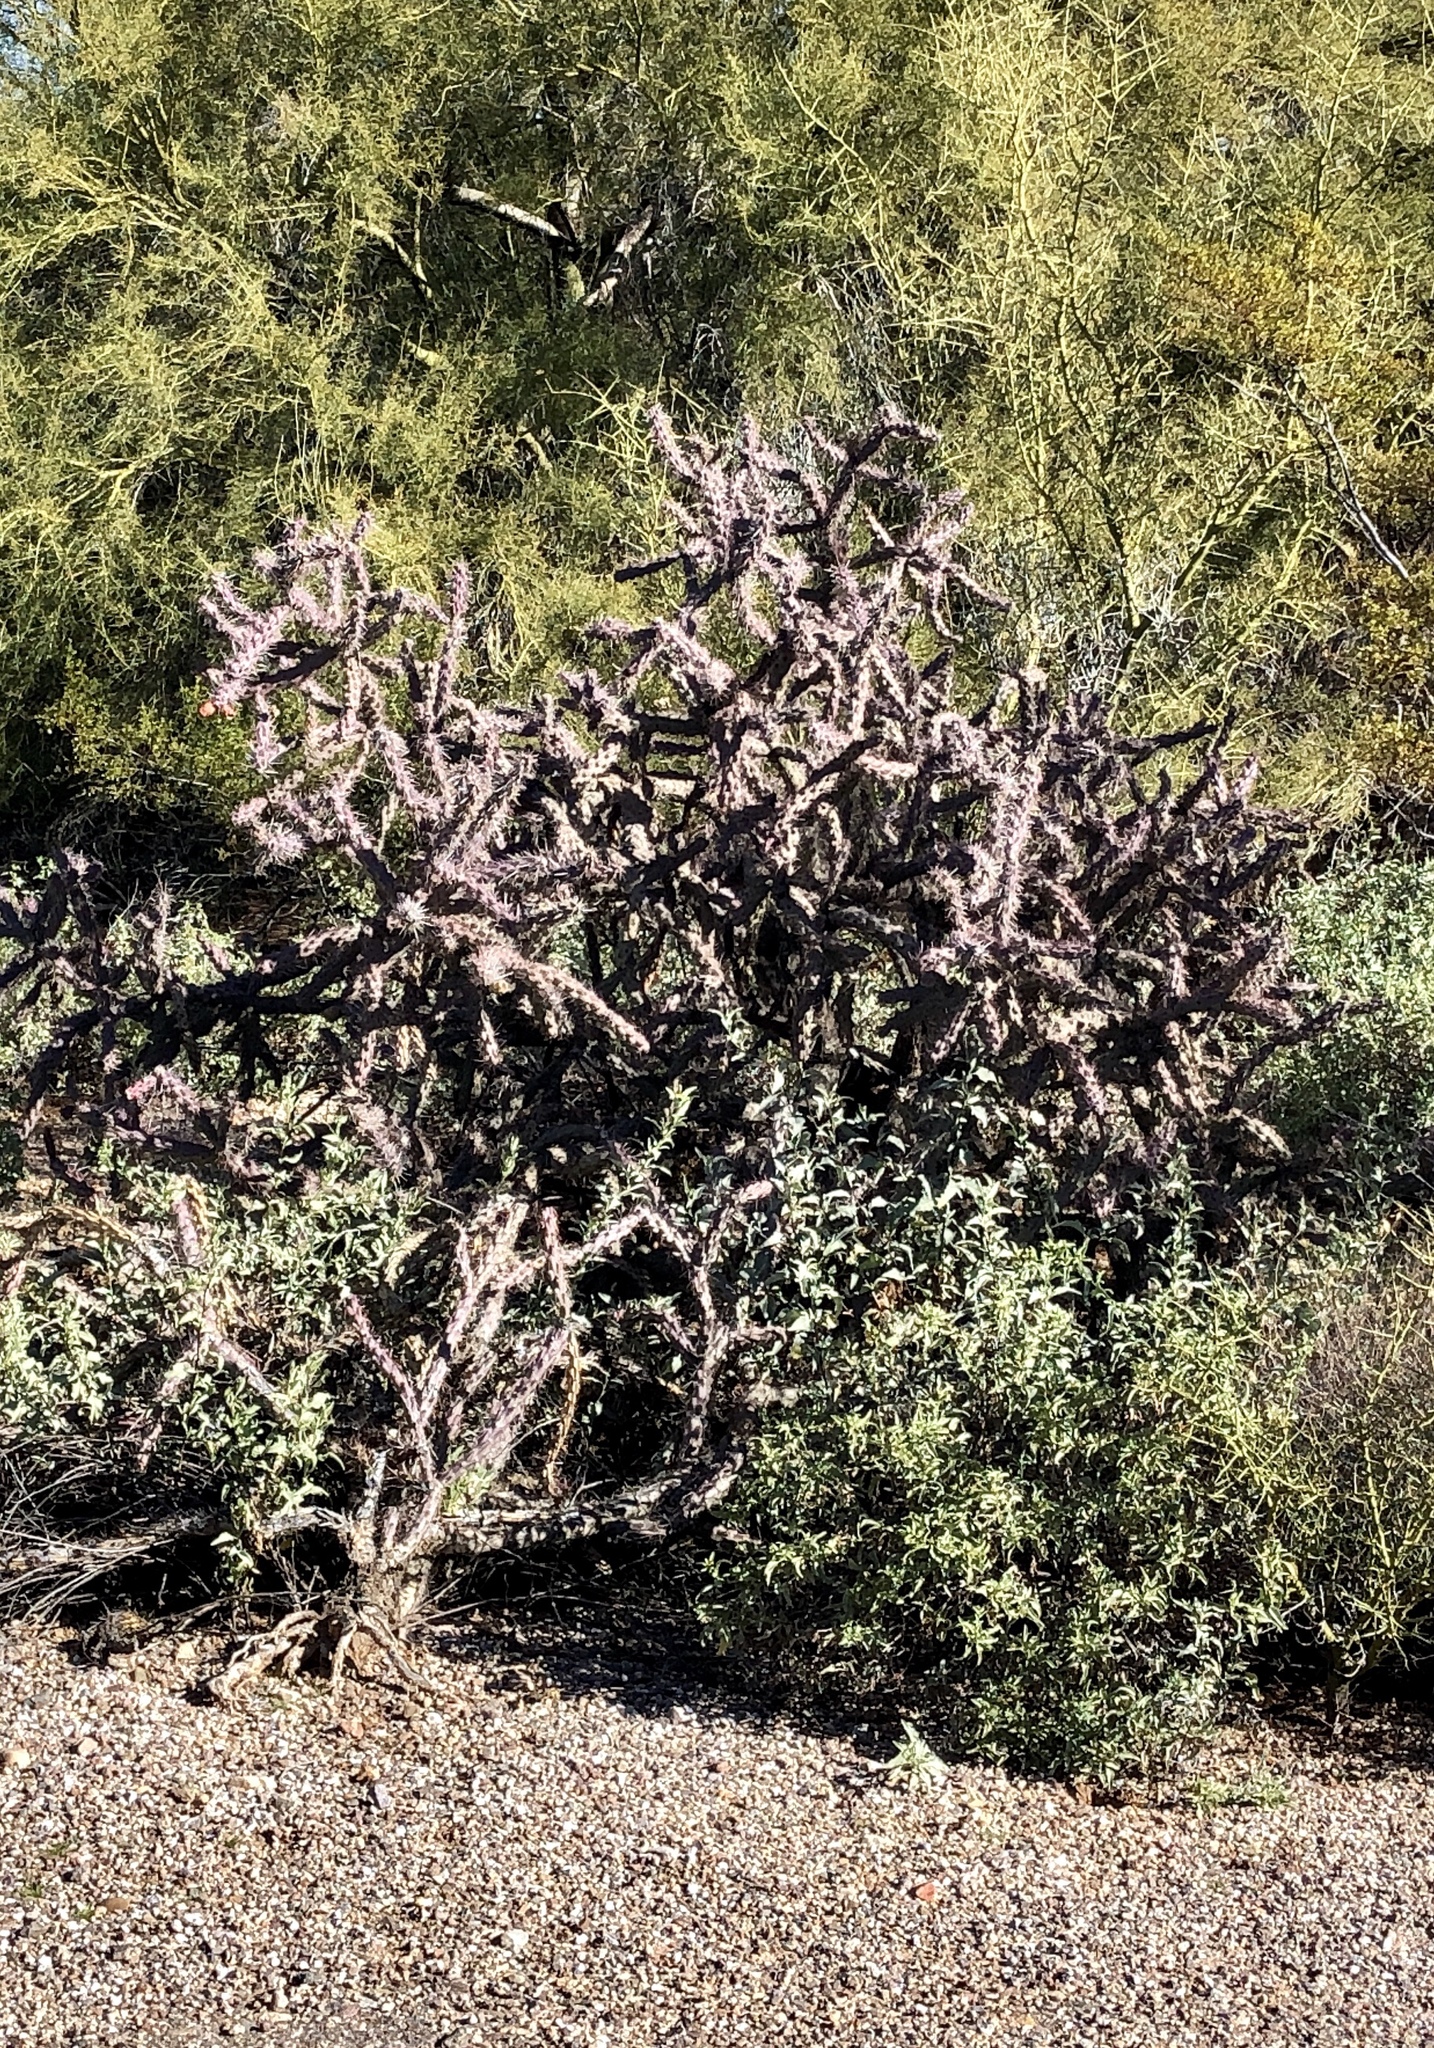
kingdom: Plantae
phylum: Tracheophyta
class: Magnoliopsida
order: Caryophyllales
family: Cactaceae
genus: Cylindropuntia
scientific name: Cylindropuntia thurberi
